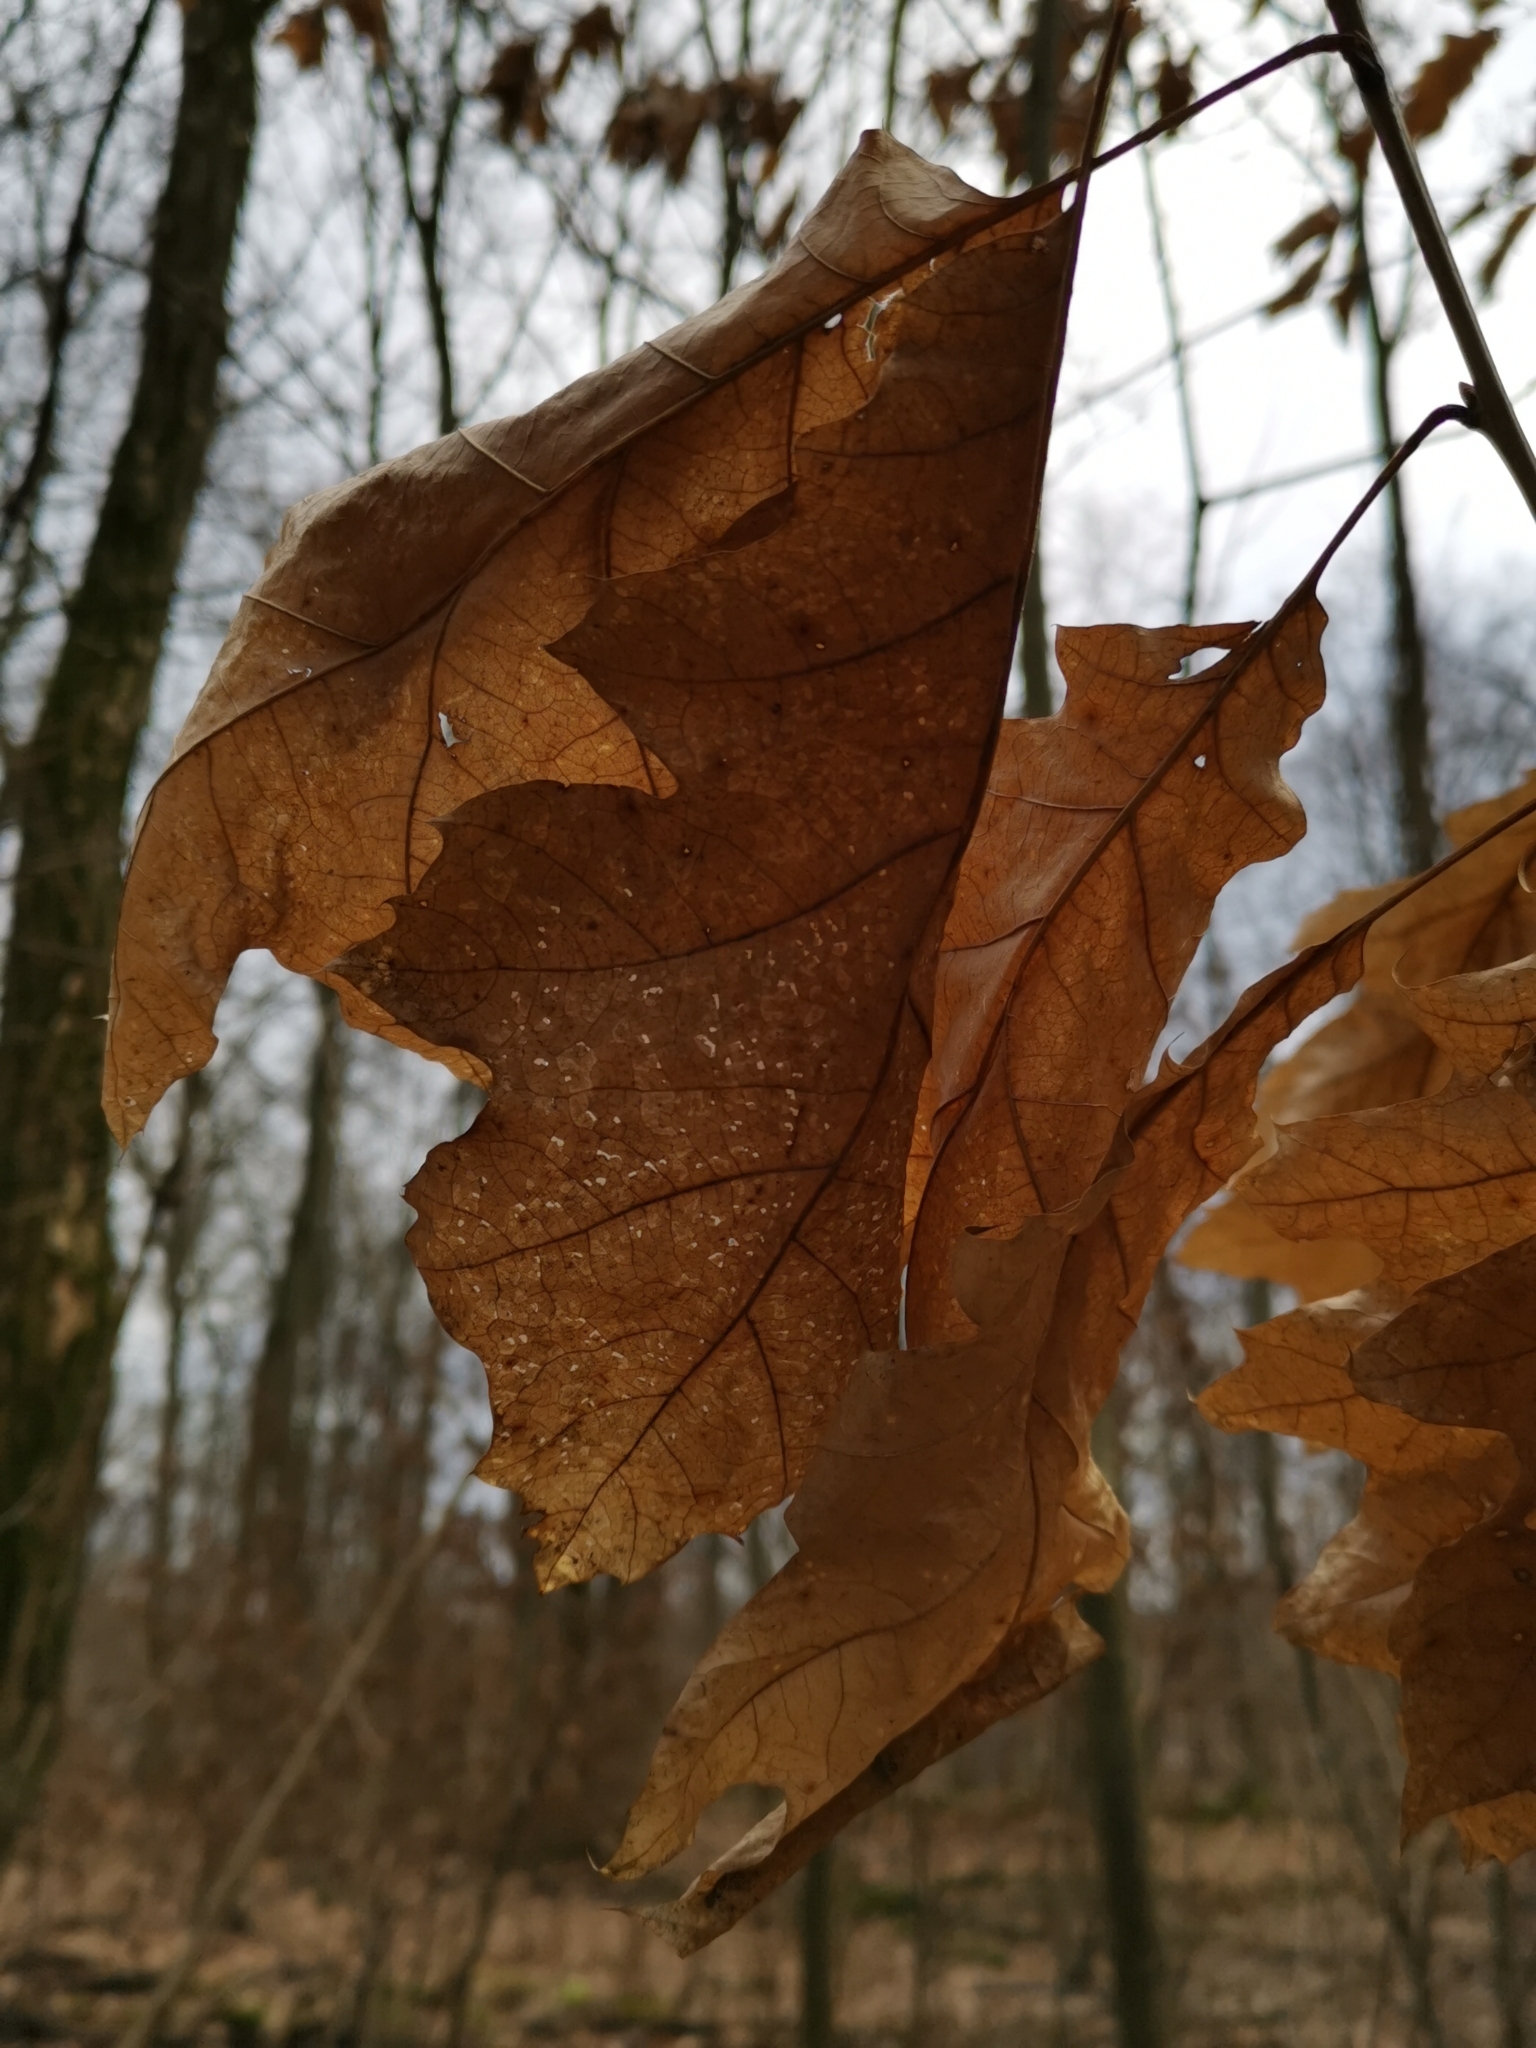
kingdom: Plantae
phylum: Tracheophyta
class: Magnoliopsida
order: Fagales
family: Fagaceae
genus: Quercus
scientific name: Quercus rubra
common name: Red oak
